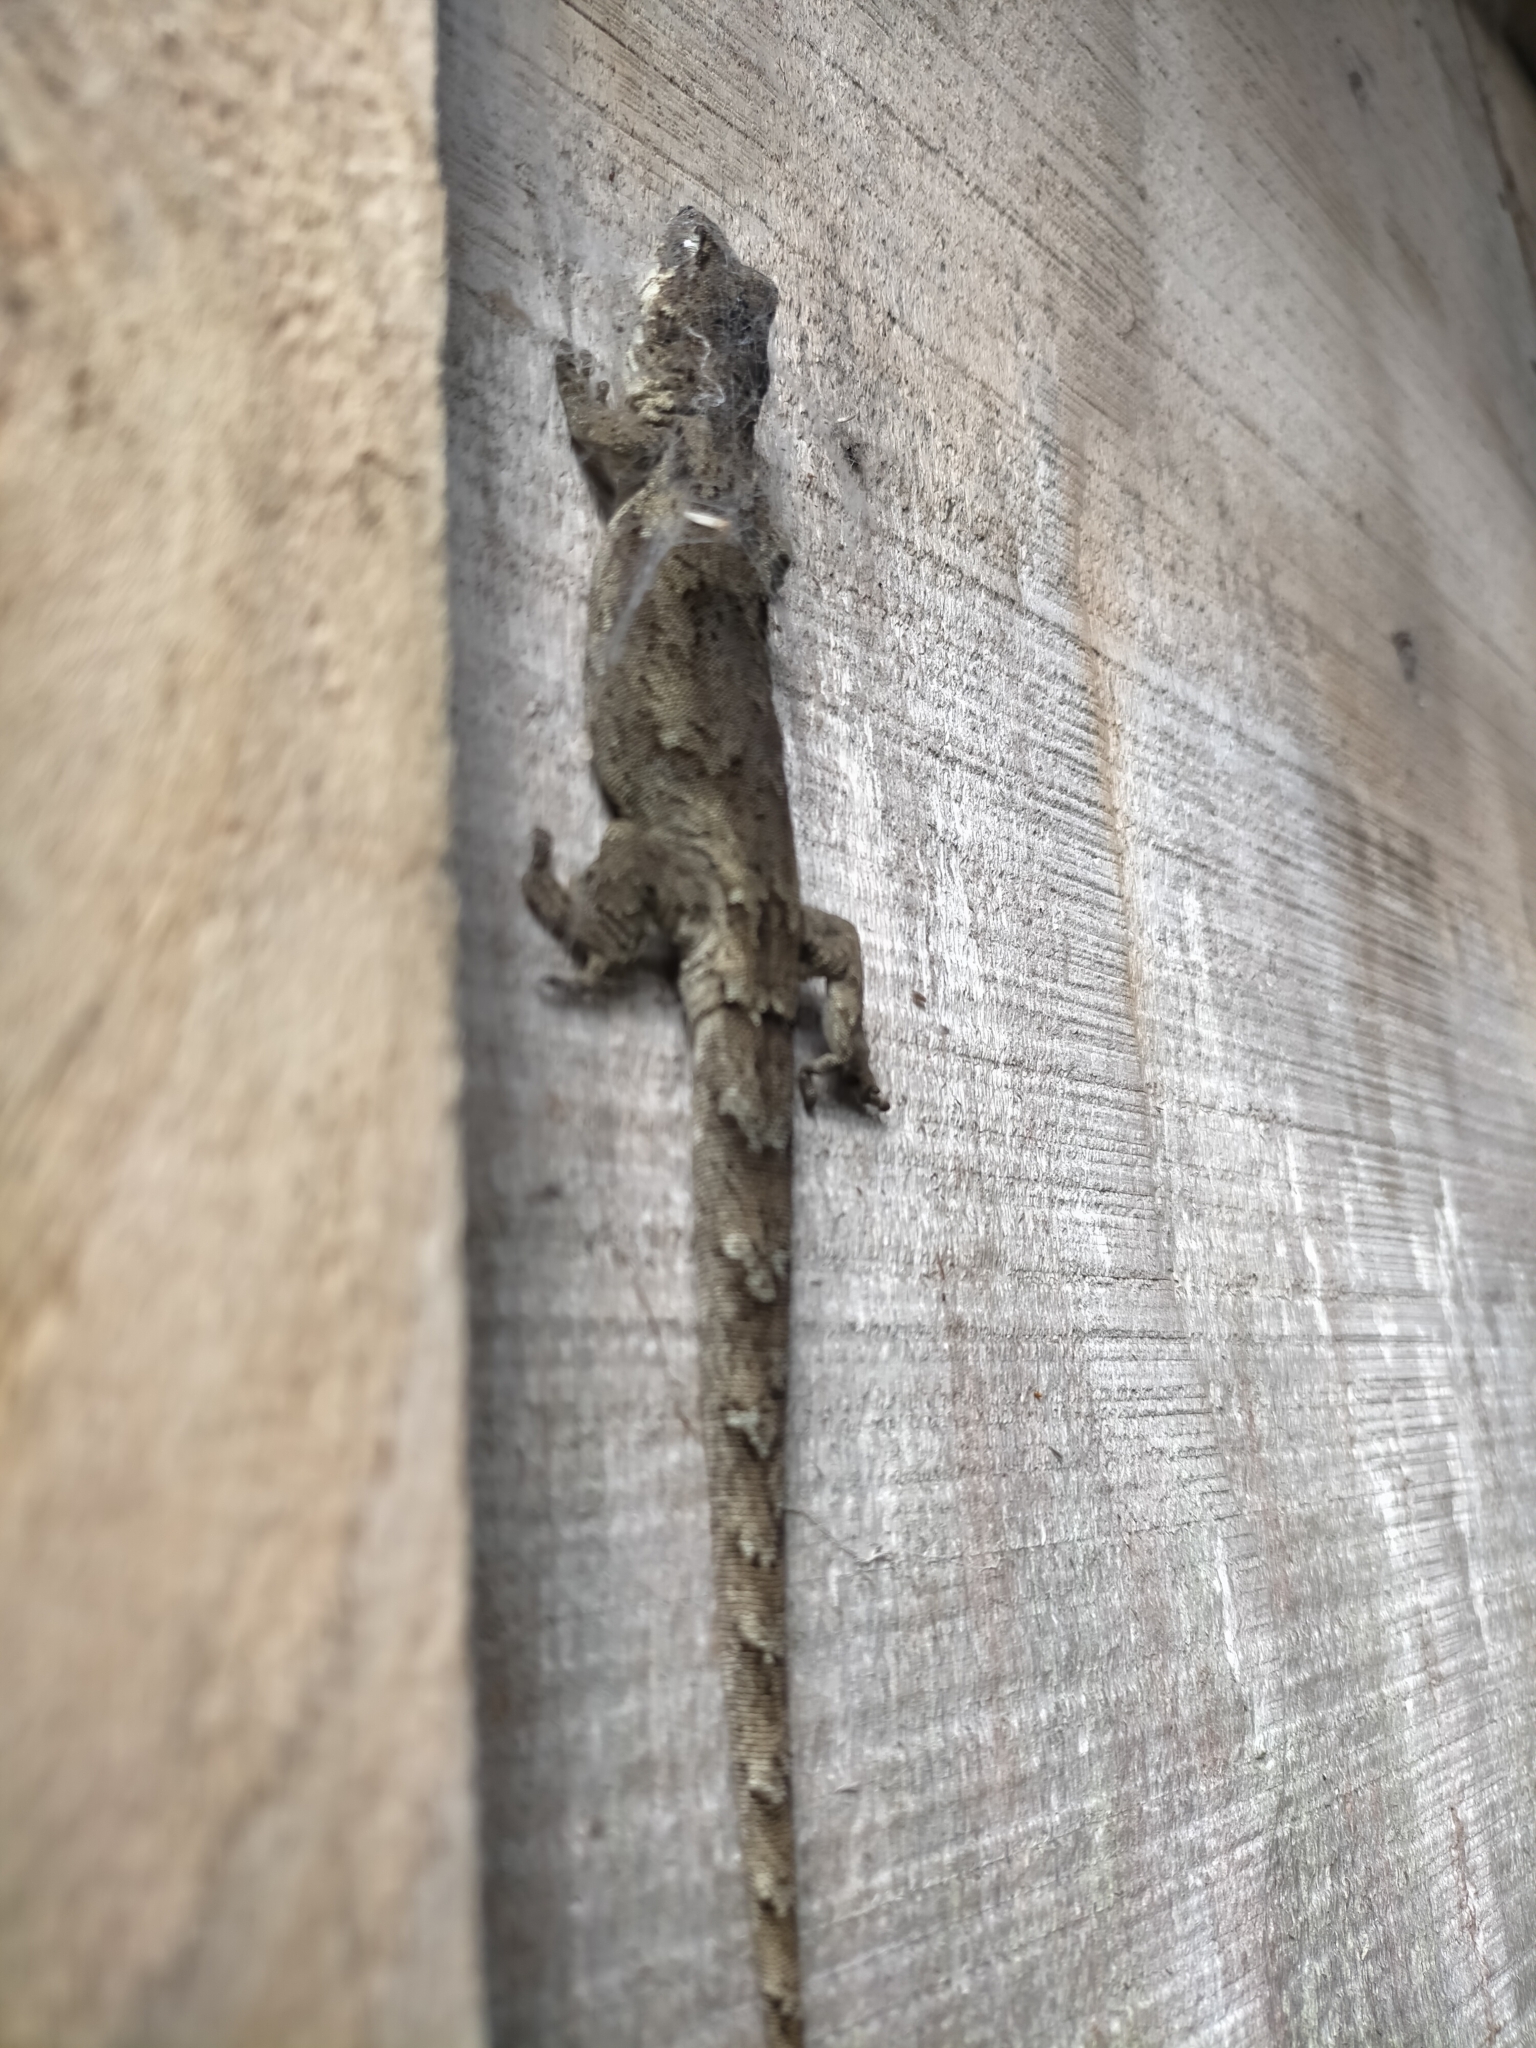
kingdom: Animalia
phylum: Chordata
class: Squamata
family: Diplodactylidae
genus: Mokopirirakau
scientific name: Mokopirirakau granulatus
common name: Forest gecko
